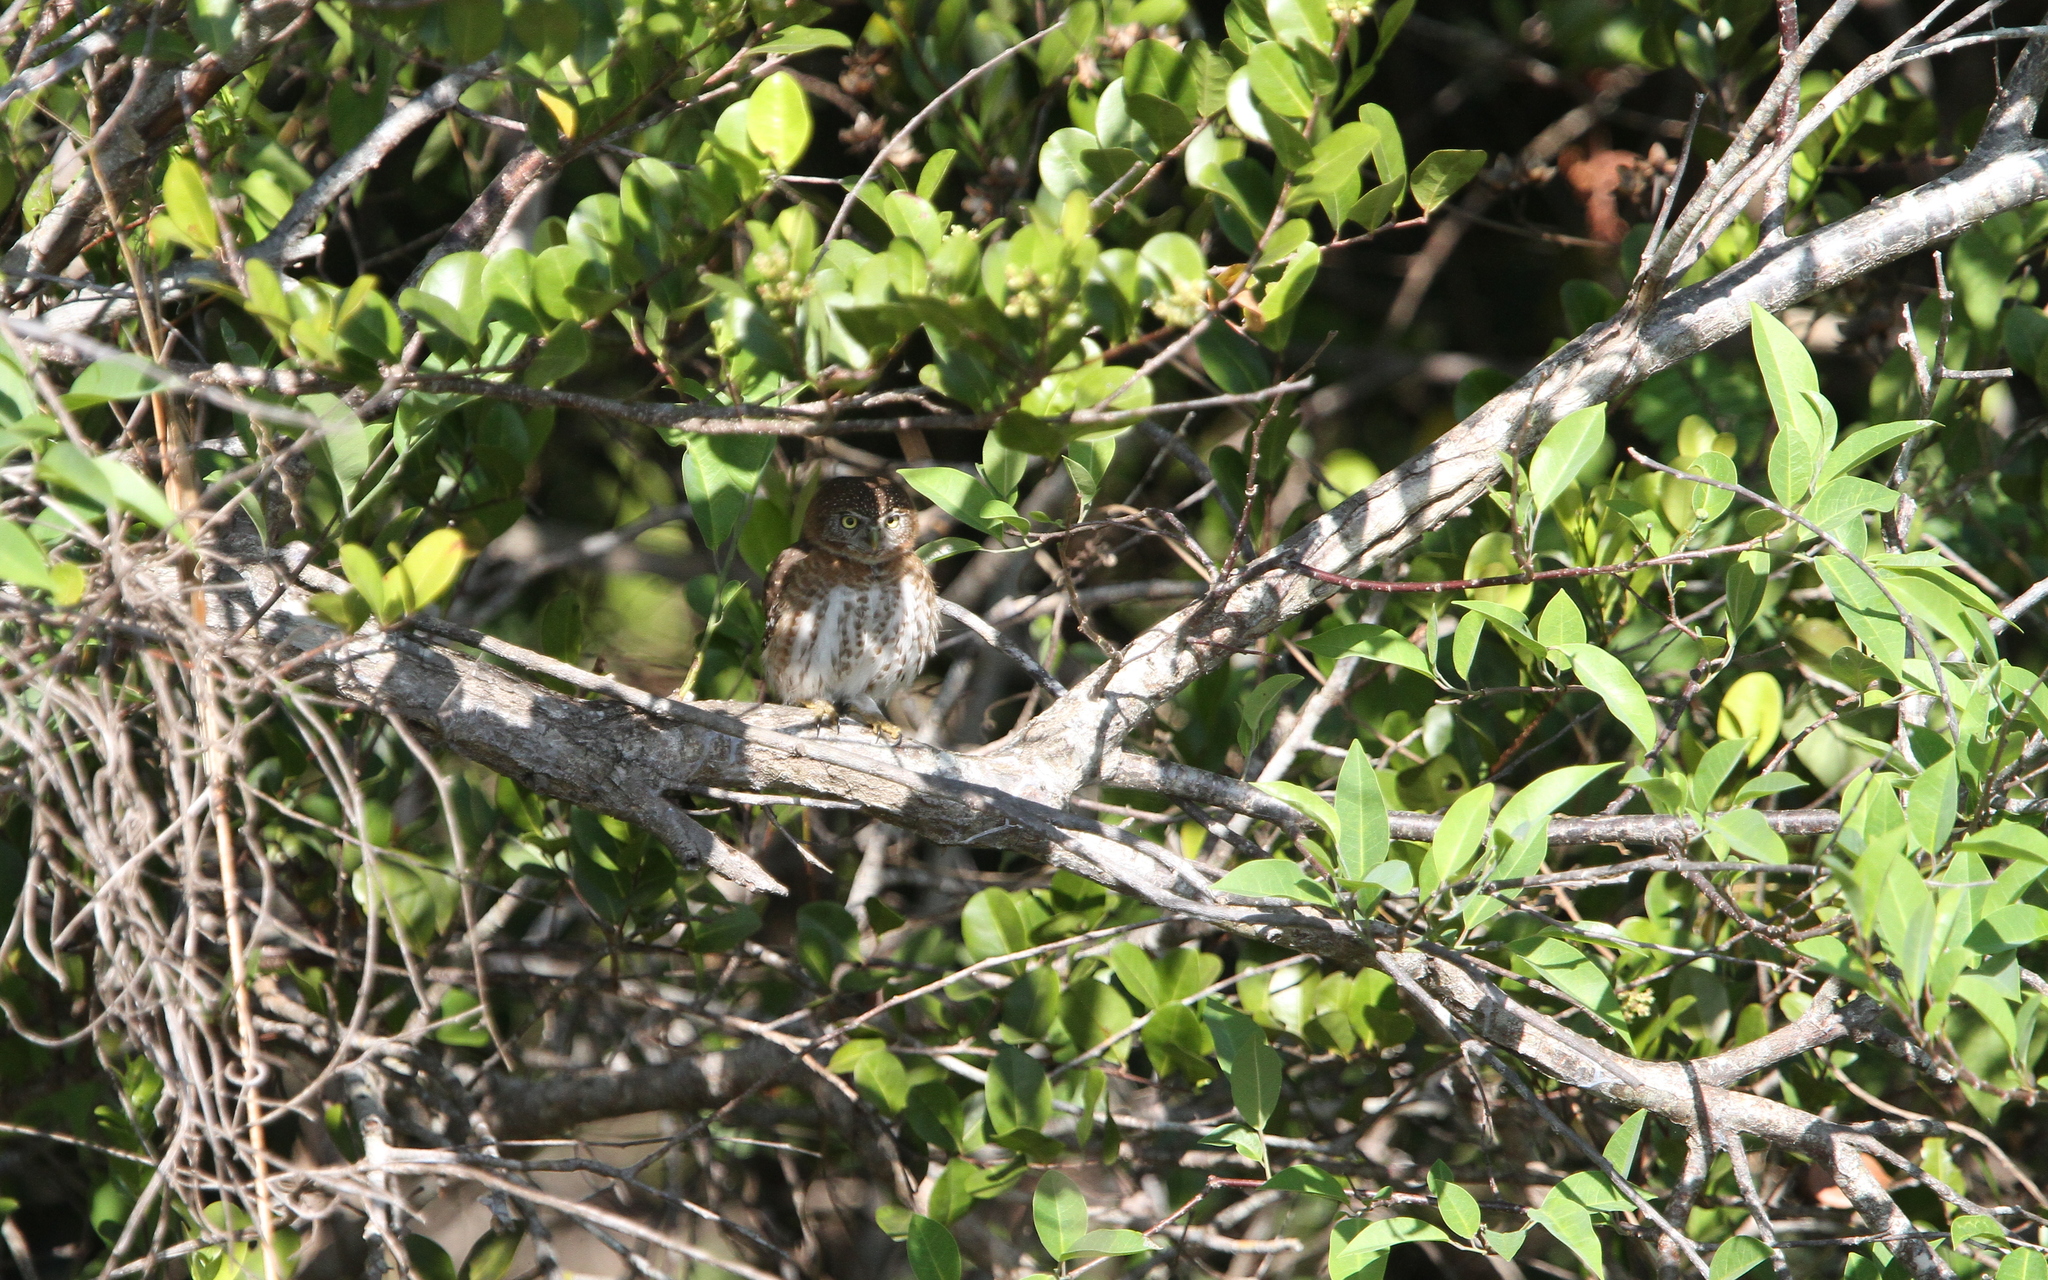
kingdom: Animalia
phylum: Chordata
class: Aves
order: Strigiformes
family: Strigidae
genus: Glaucidium
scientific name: Glaucidium siju
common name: Cuban pygmy-owl
